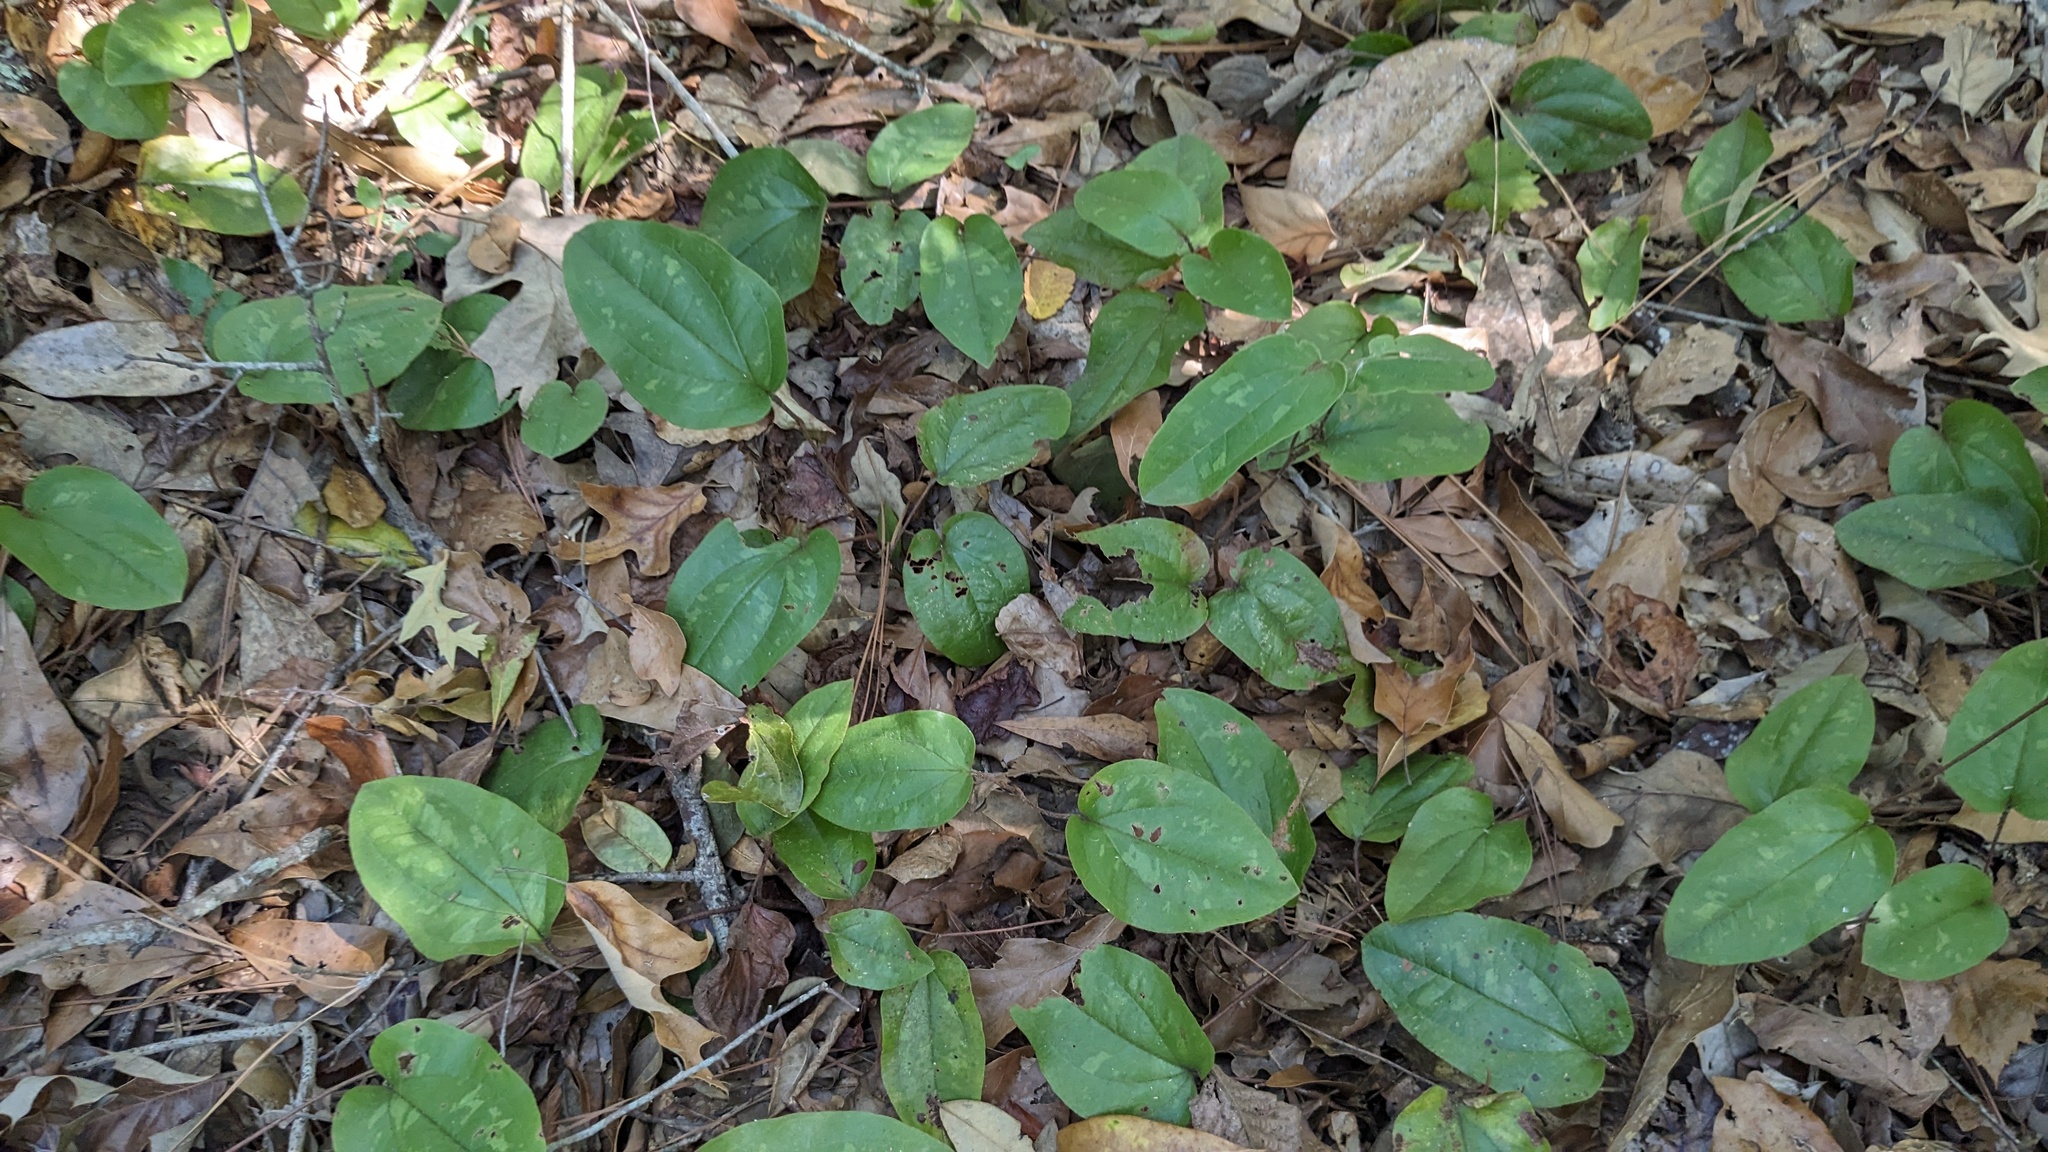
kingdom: Plantae
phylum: Tracheophyta
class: Liliopsida
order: Liliales
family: Smilacaceae
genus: Smilax
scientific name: Smilax pumila
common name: Sarsaparilla-vine
